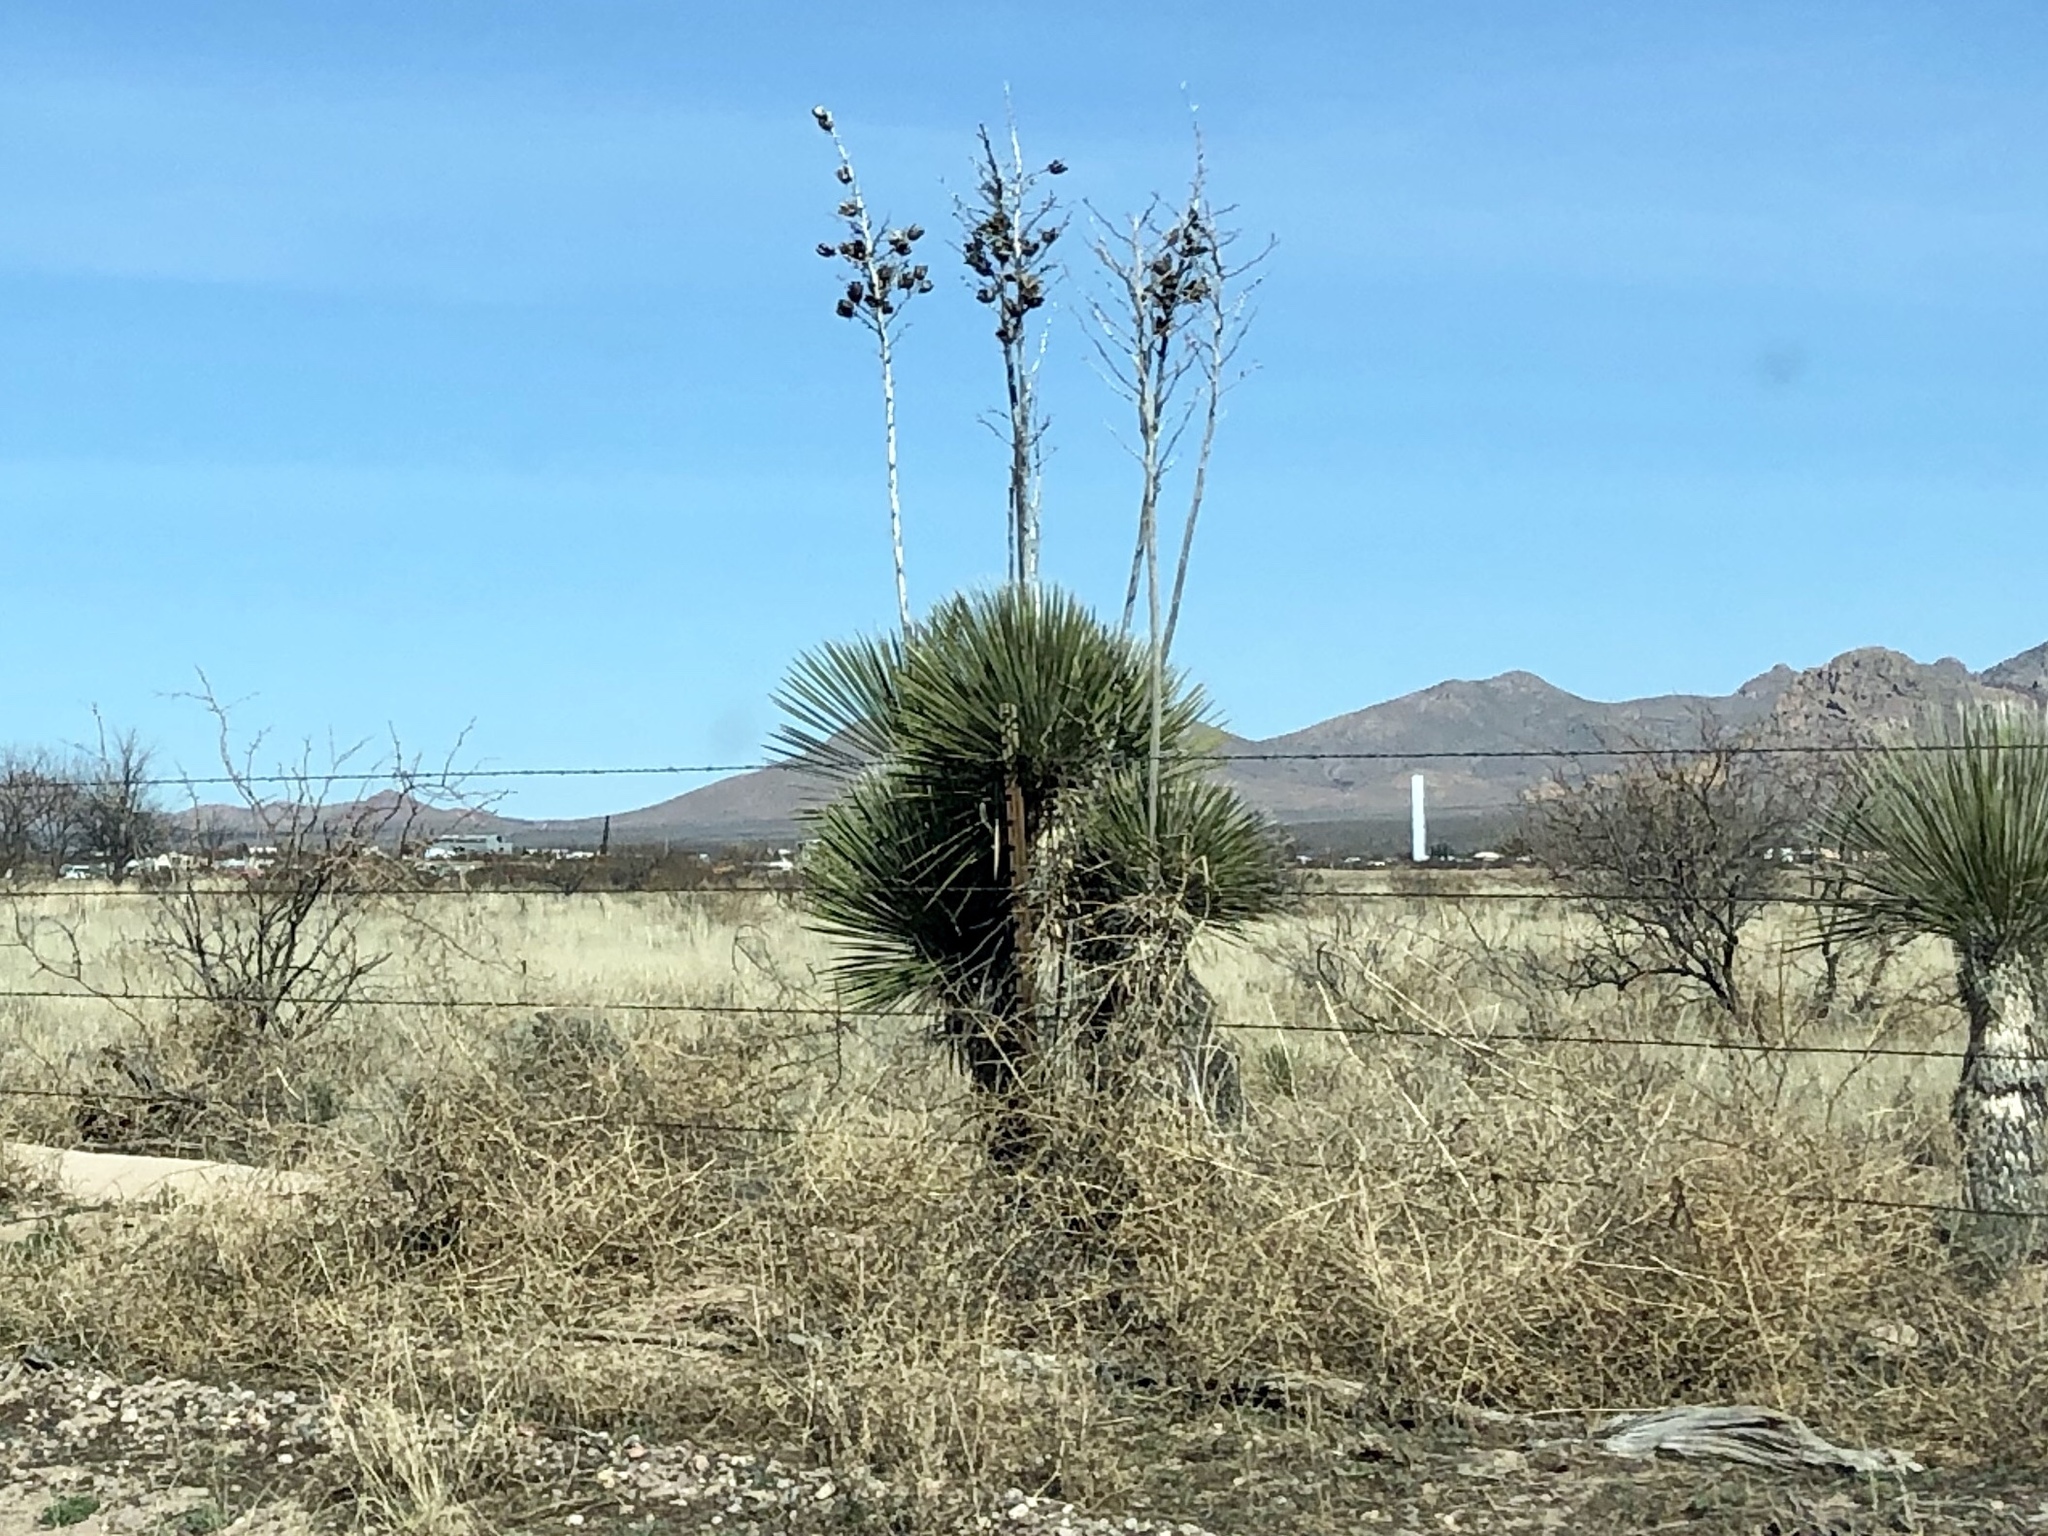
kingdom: Plantae
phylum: Tracheophyta
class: Liliopsida
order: Asparagales
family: Asparagaceae
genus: Yucca
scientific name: Yucca elata
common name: Palmella
